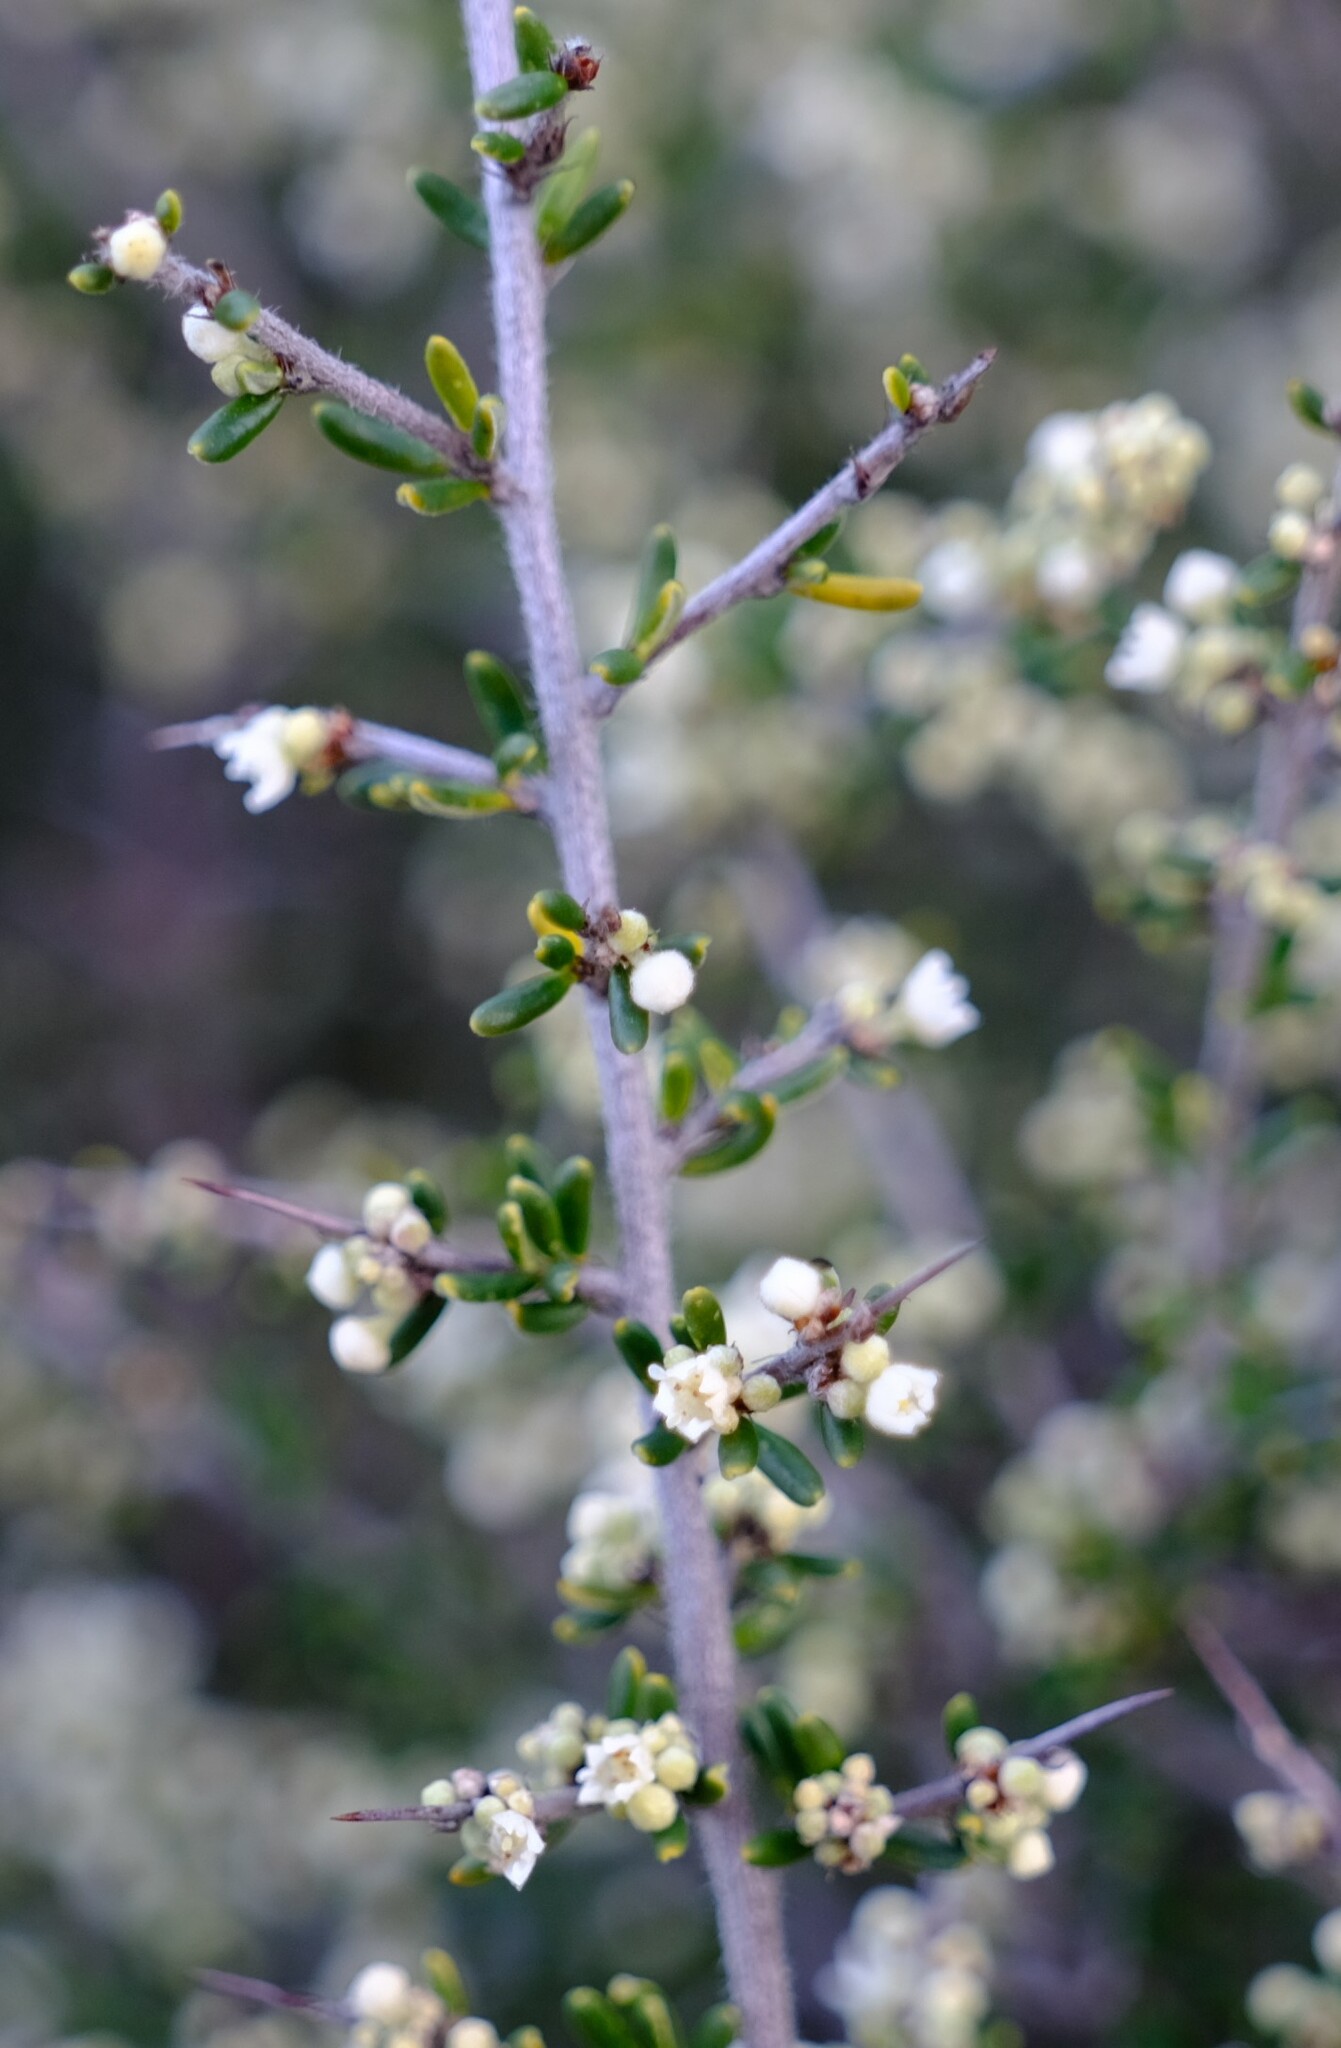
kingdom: Plantae
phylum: Tracheophyta
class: Magnoliopsida
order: Rosales
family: Rhamnaceae
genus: Cryptandra
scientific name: Cryptandra pungens
